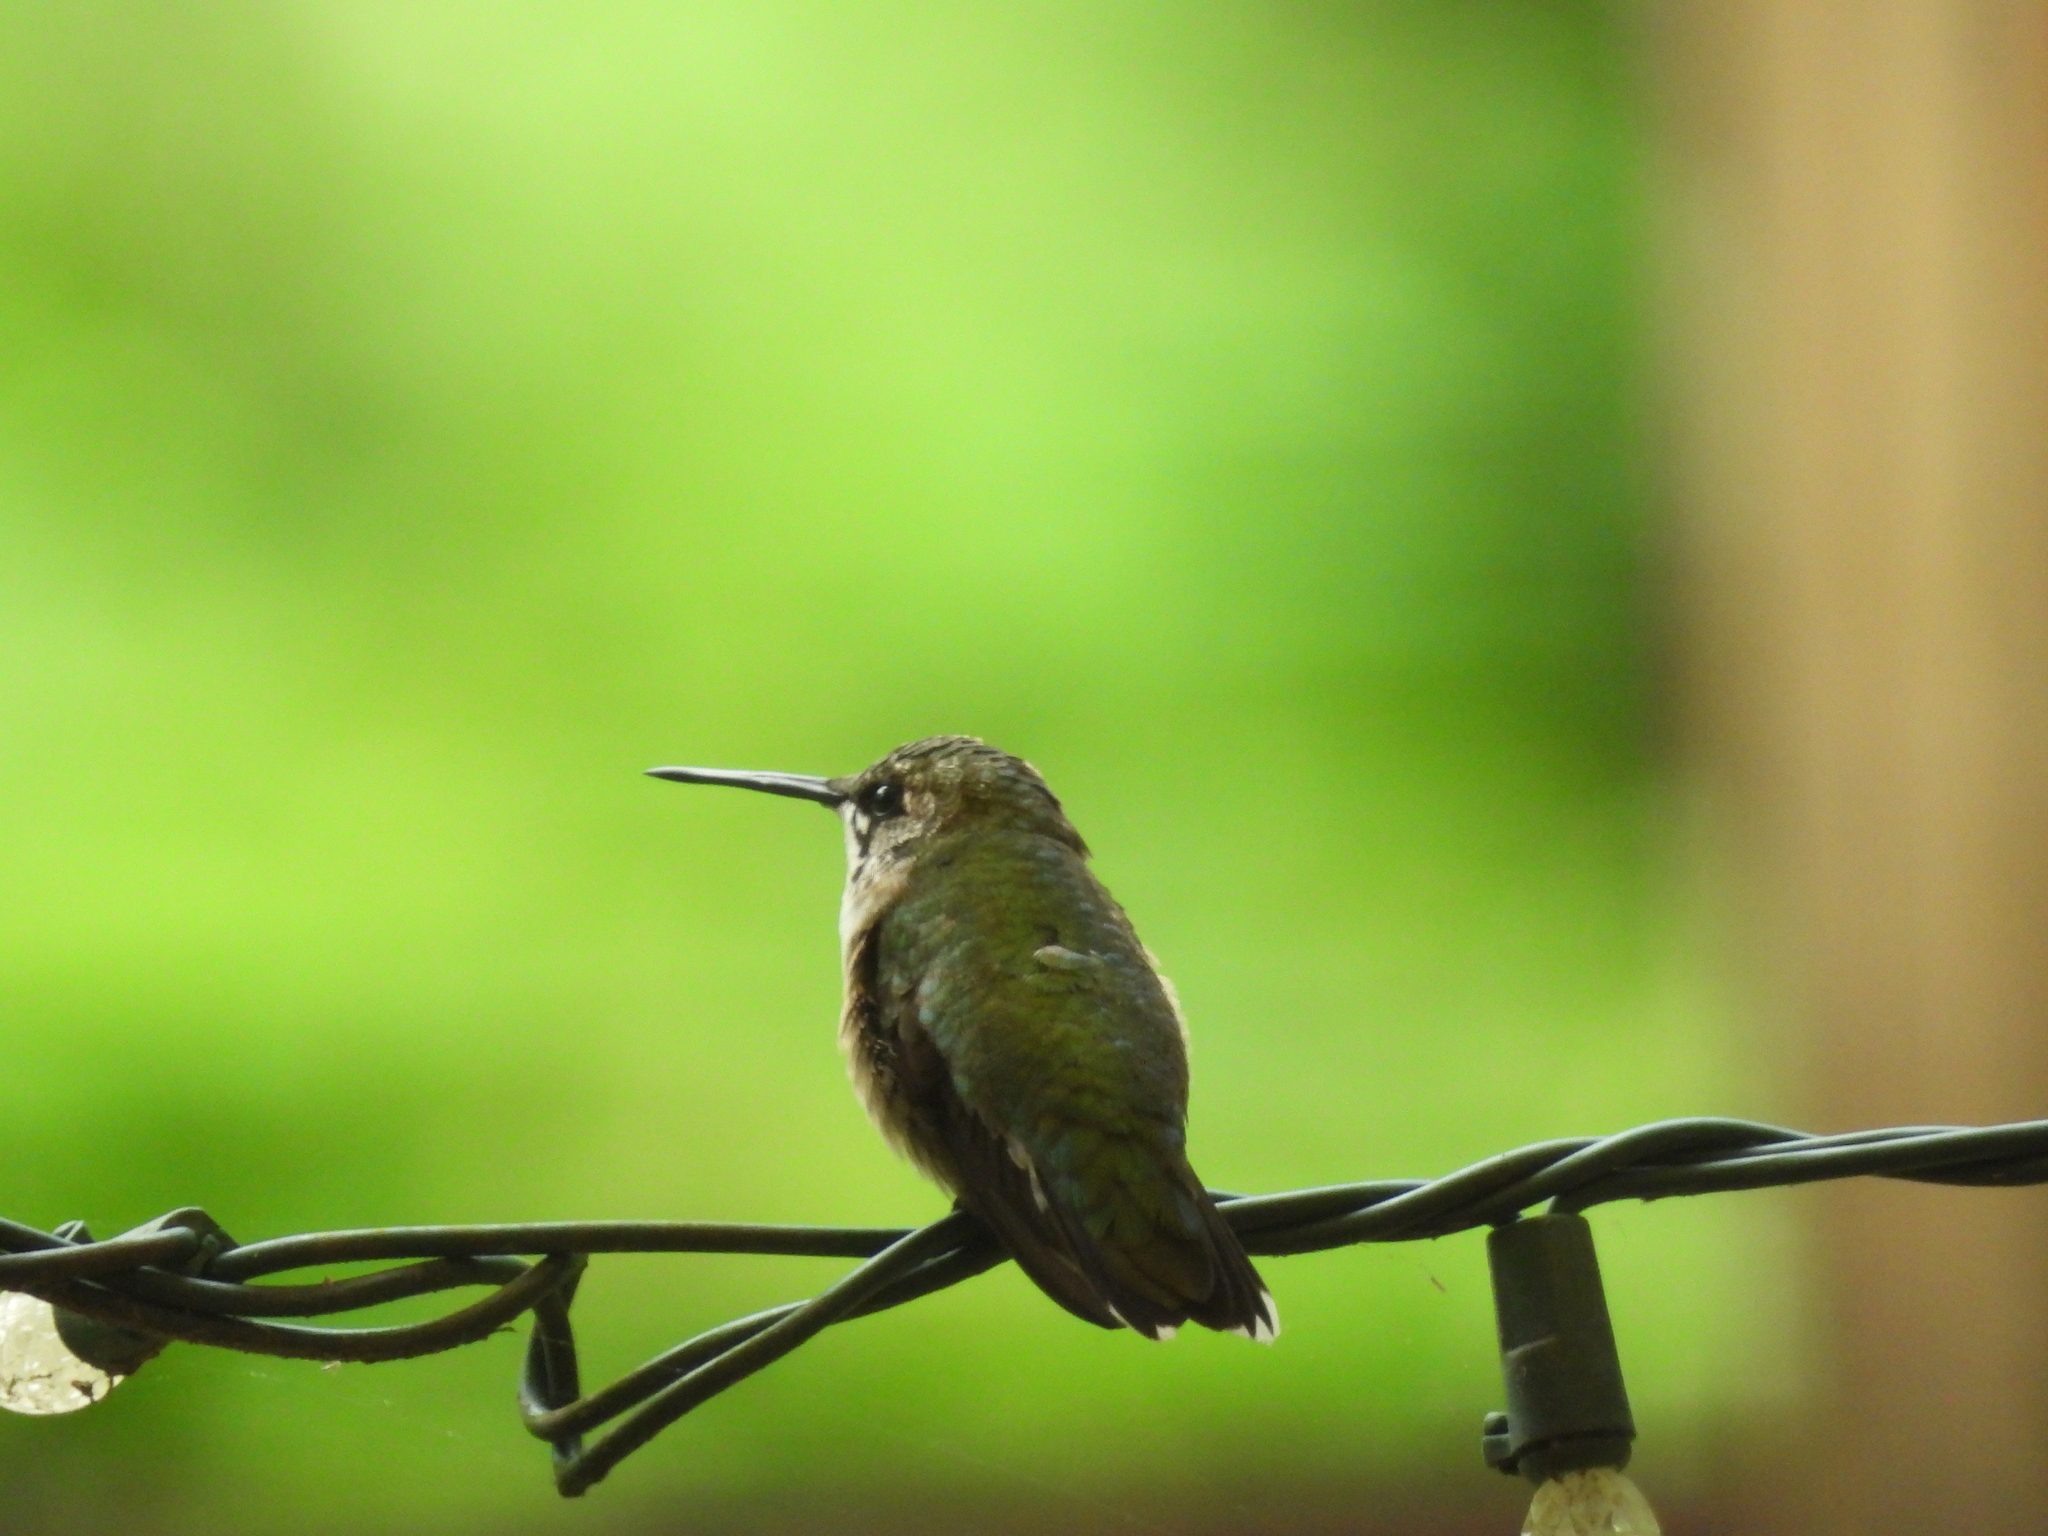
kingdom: Animalia
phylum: Chordata
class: Aves
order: Apodiformes
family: Trochilidae
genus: Archilochus
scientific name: Archilochus colubris
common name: Ruby-throated hummingbird
